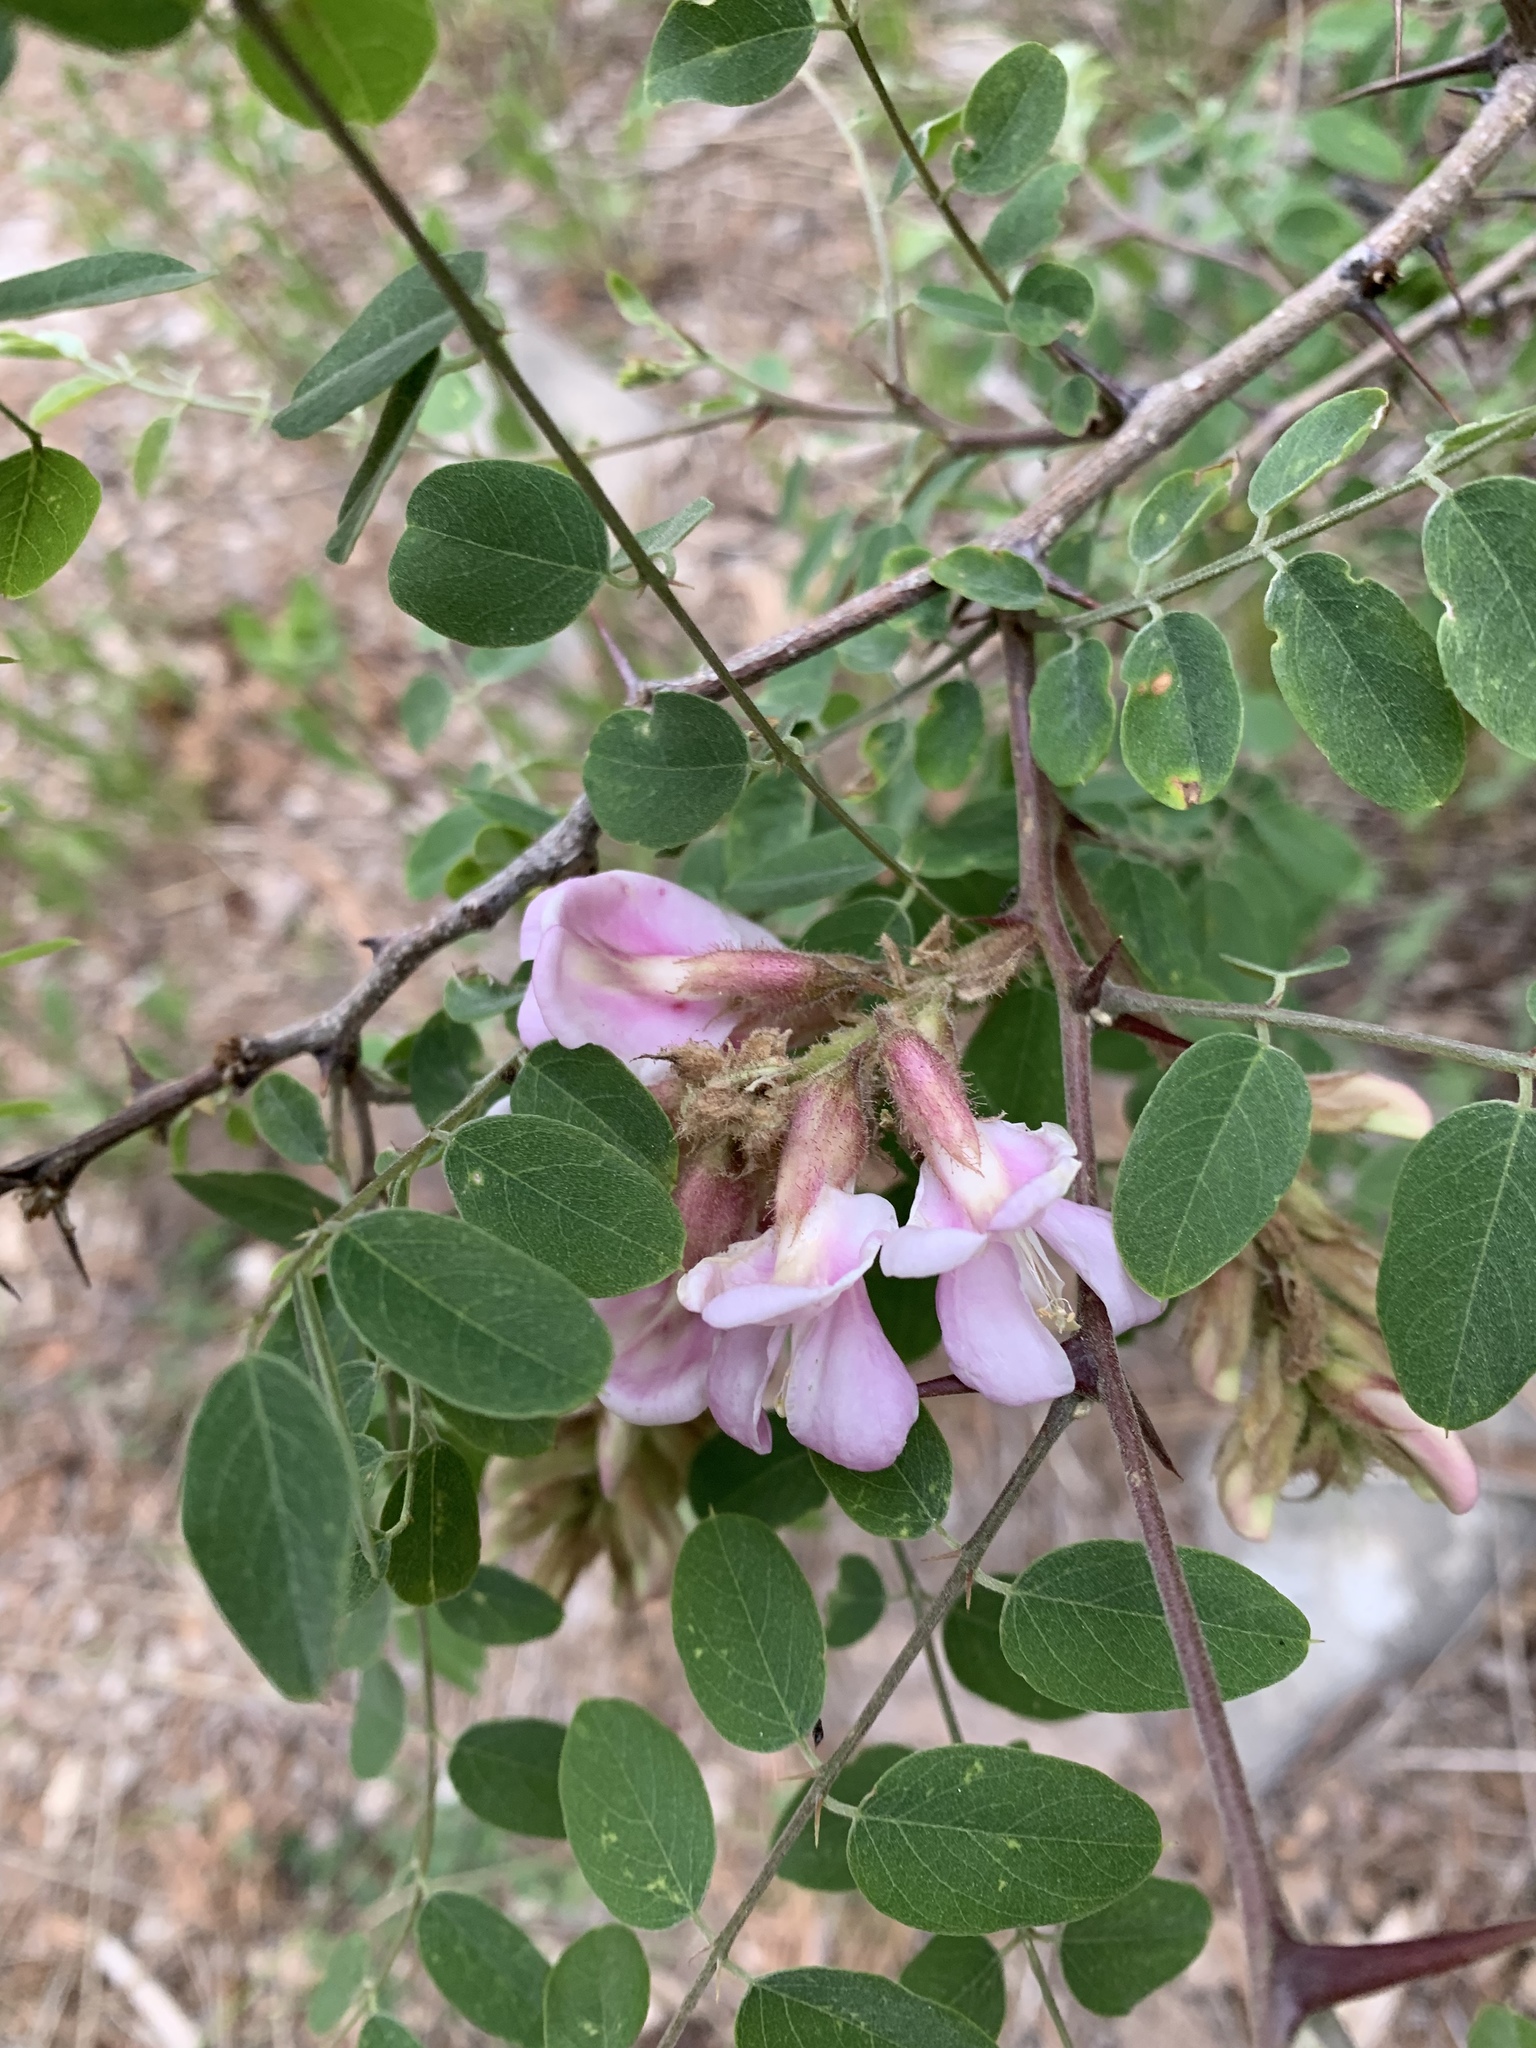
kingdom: Plantae
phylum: Tracheophyta
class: Magnoliopsida
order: Fabales
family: Fabaceae
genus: Robinia
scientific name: Robinia neomexicana
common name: New mexico locust
